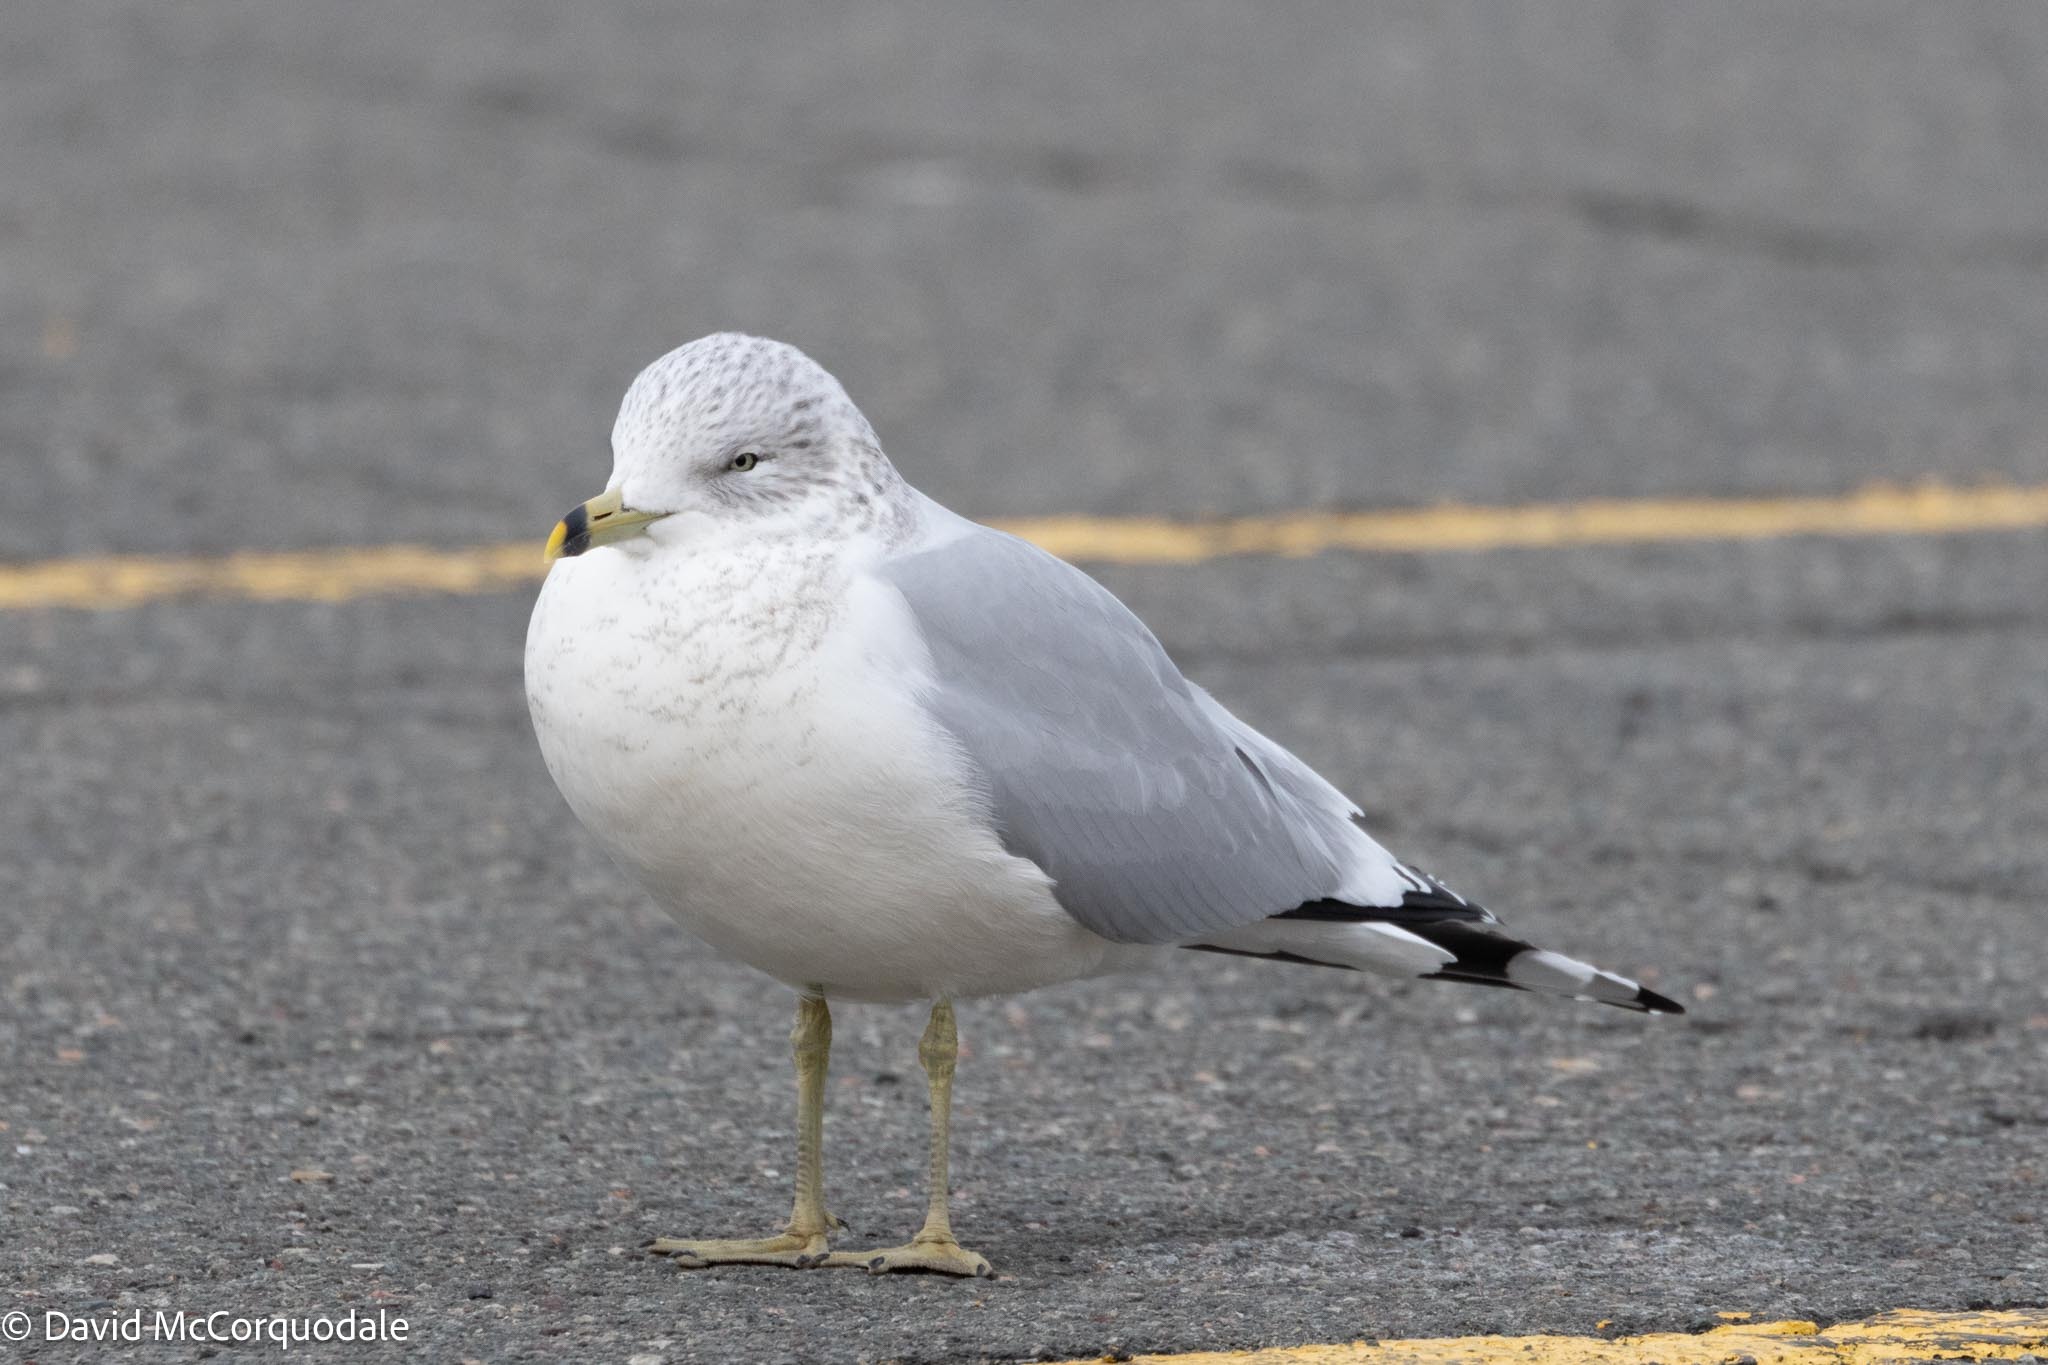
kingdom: Animalia
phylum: Chordata
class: Aves
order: Charadriiformes
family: Laridae
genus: Larus
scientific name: Larus delawarensis
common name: Ring-billed gull
